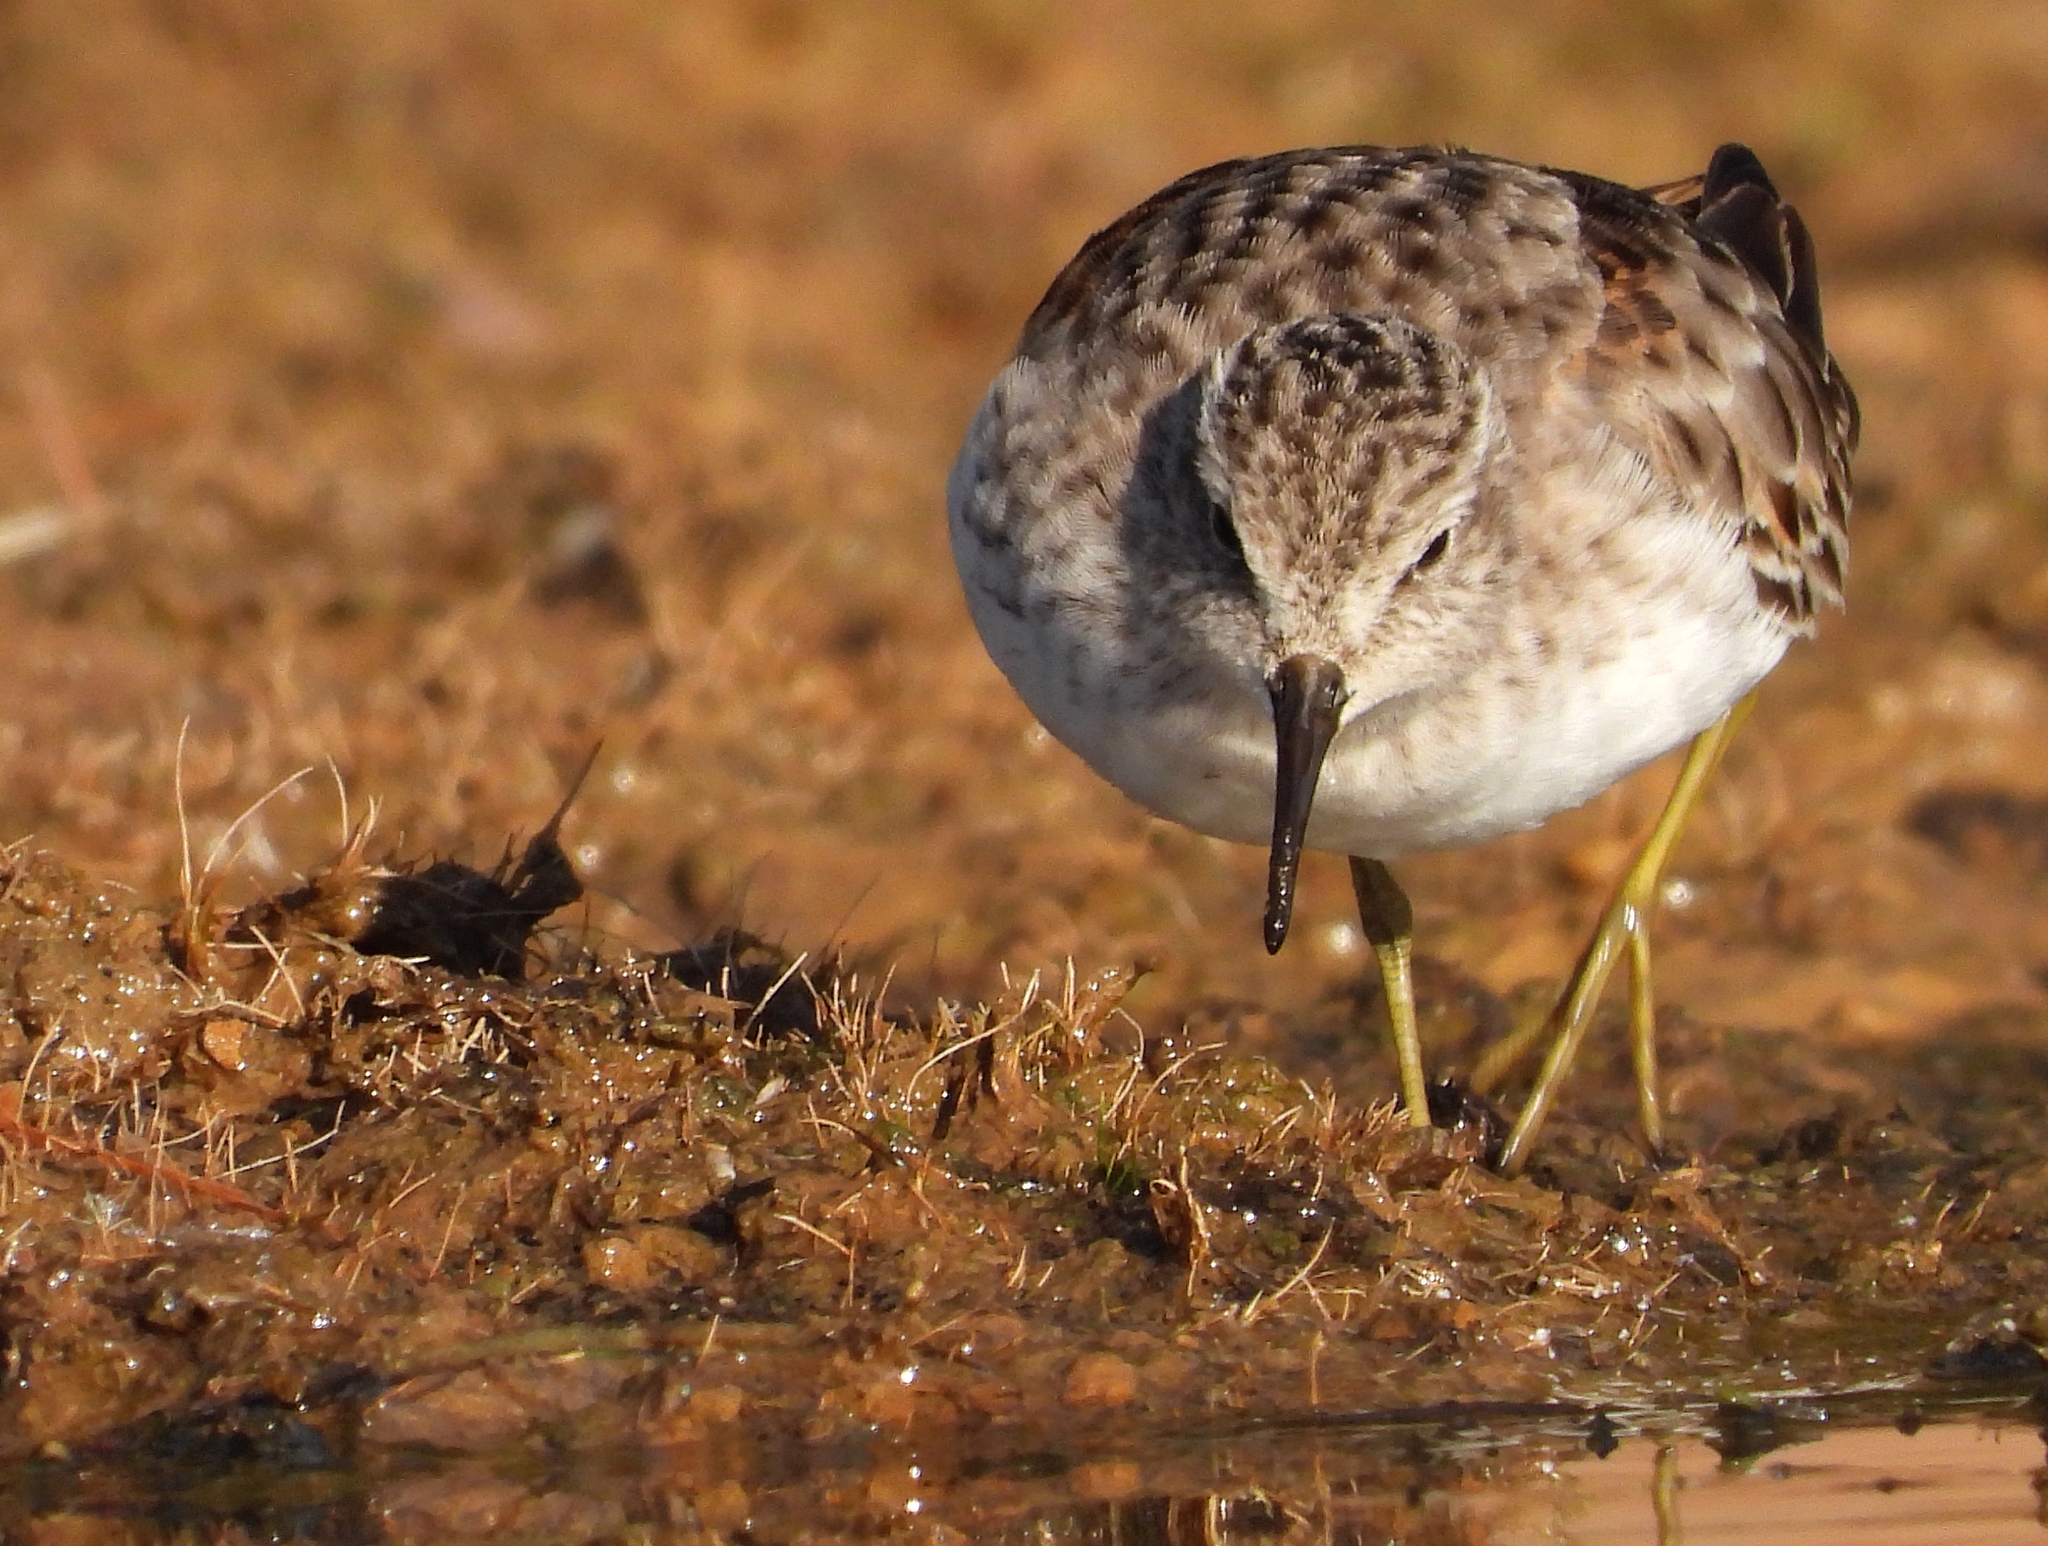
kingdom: Animalia
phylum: Chordata
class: Aves
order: Charadriiformes
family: Scolopacidae
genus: Calidris
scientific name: Calidris minutilla
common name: Least sandpiper
